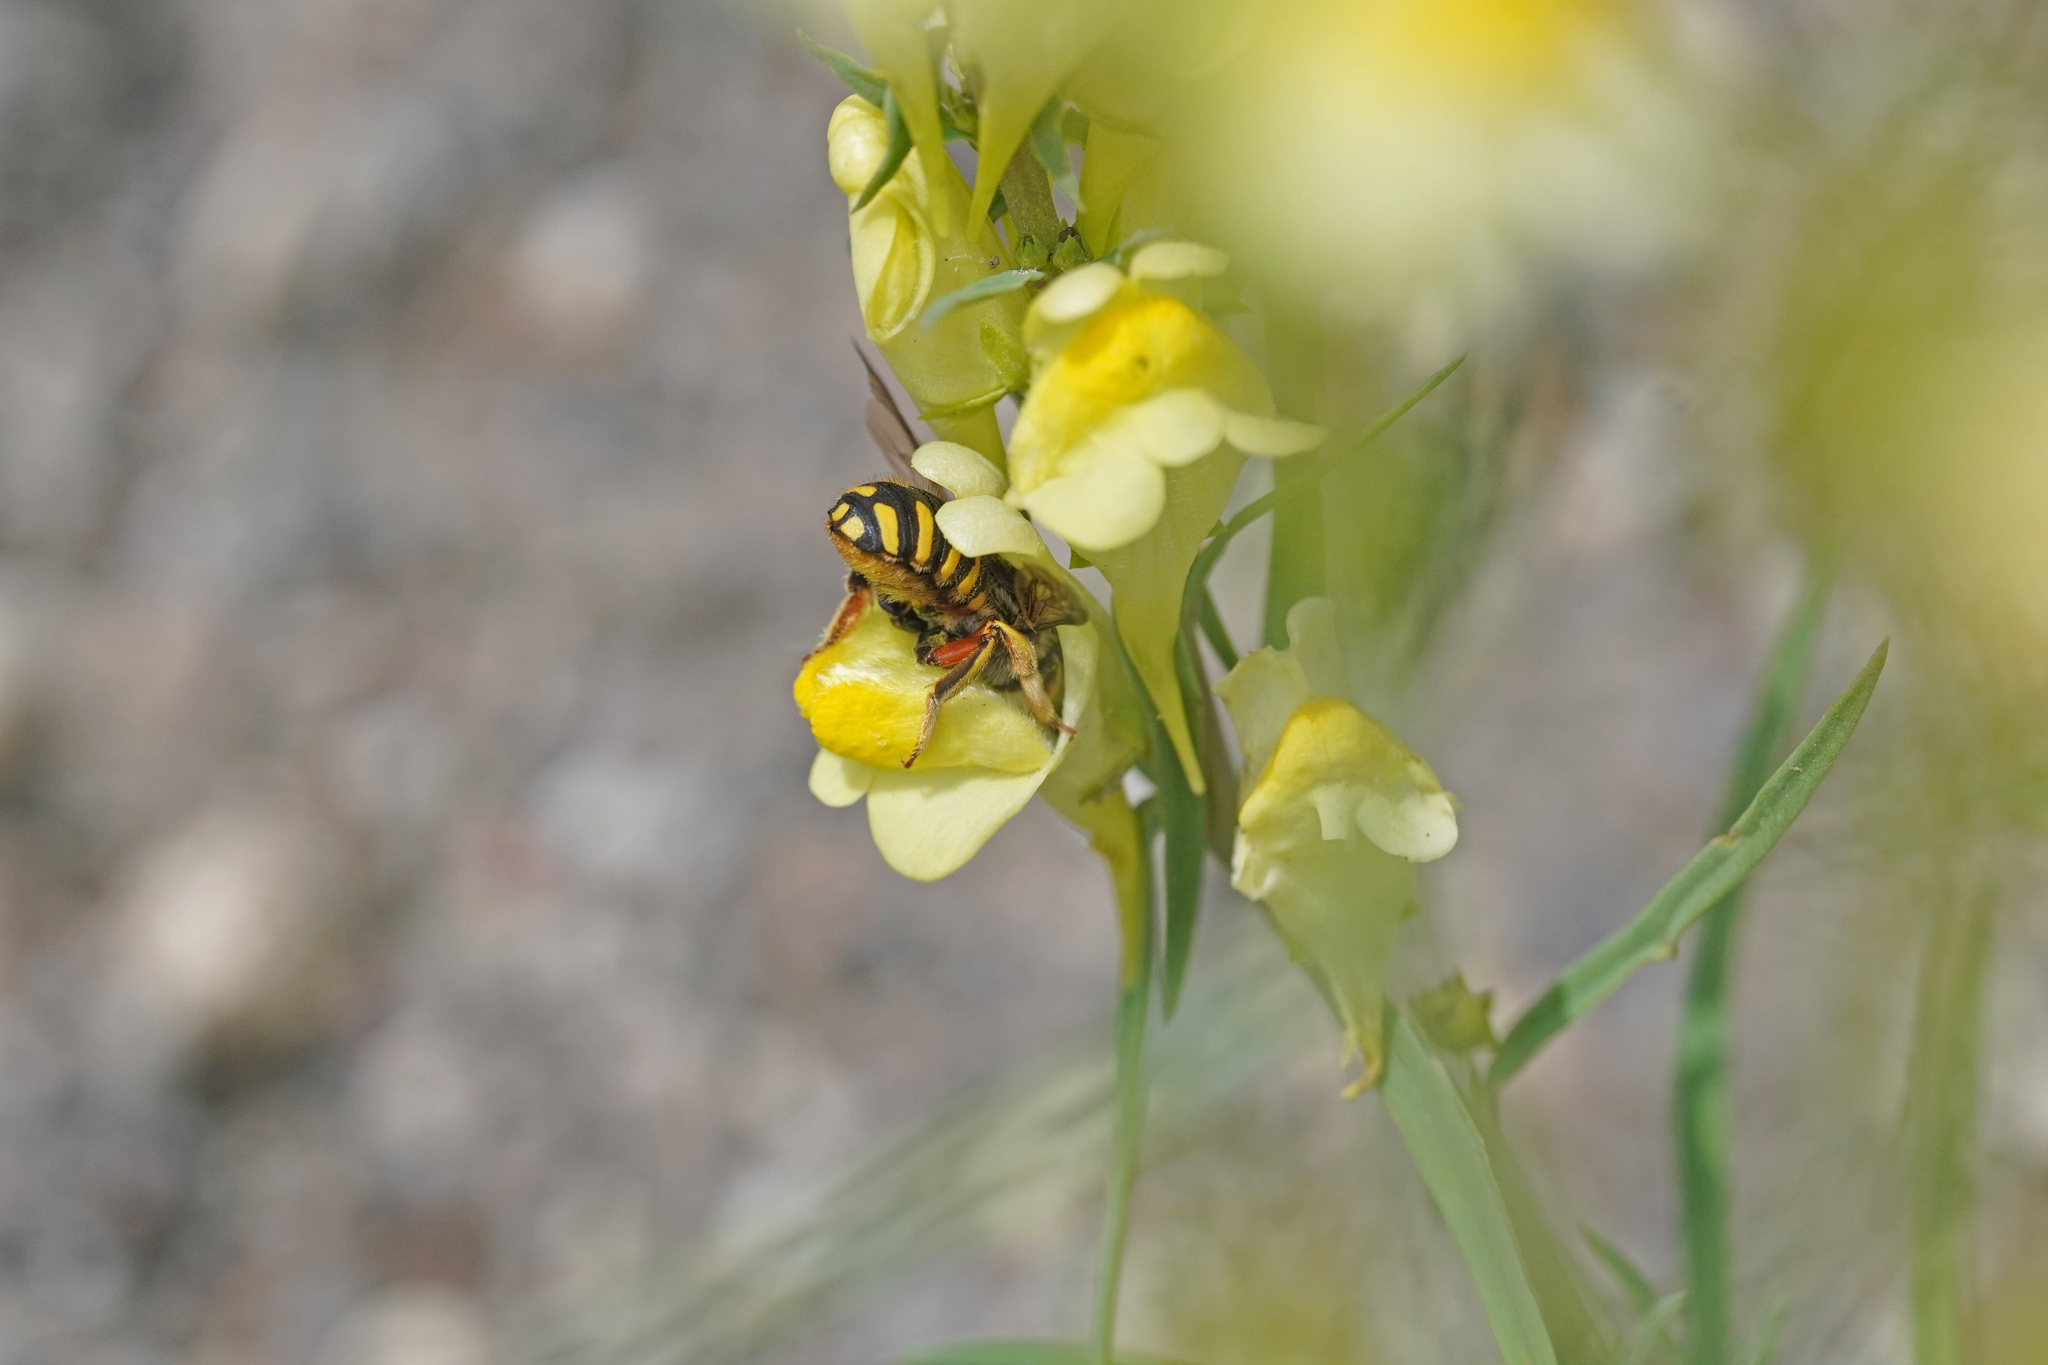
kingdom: Animalia
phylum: Arthropoda
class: Insecta
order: Hymenoptera
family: Megachilidae
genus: Anthidium
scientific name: Anthidium manicatum
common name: Wool carder bee
